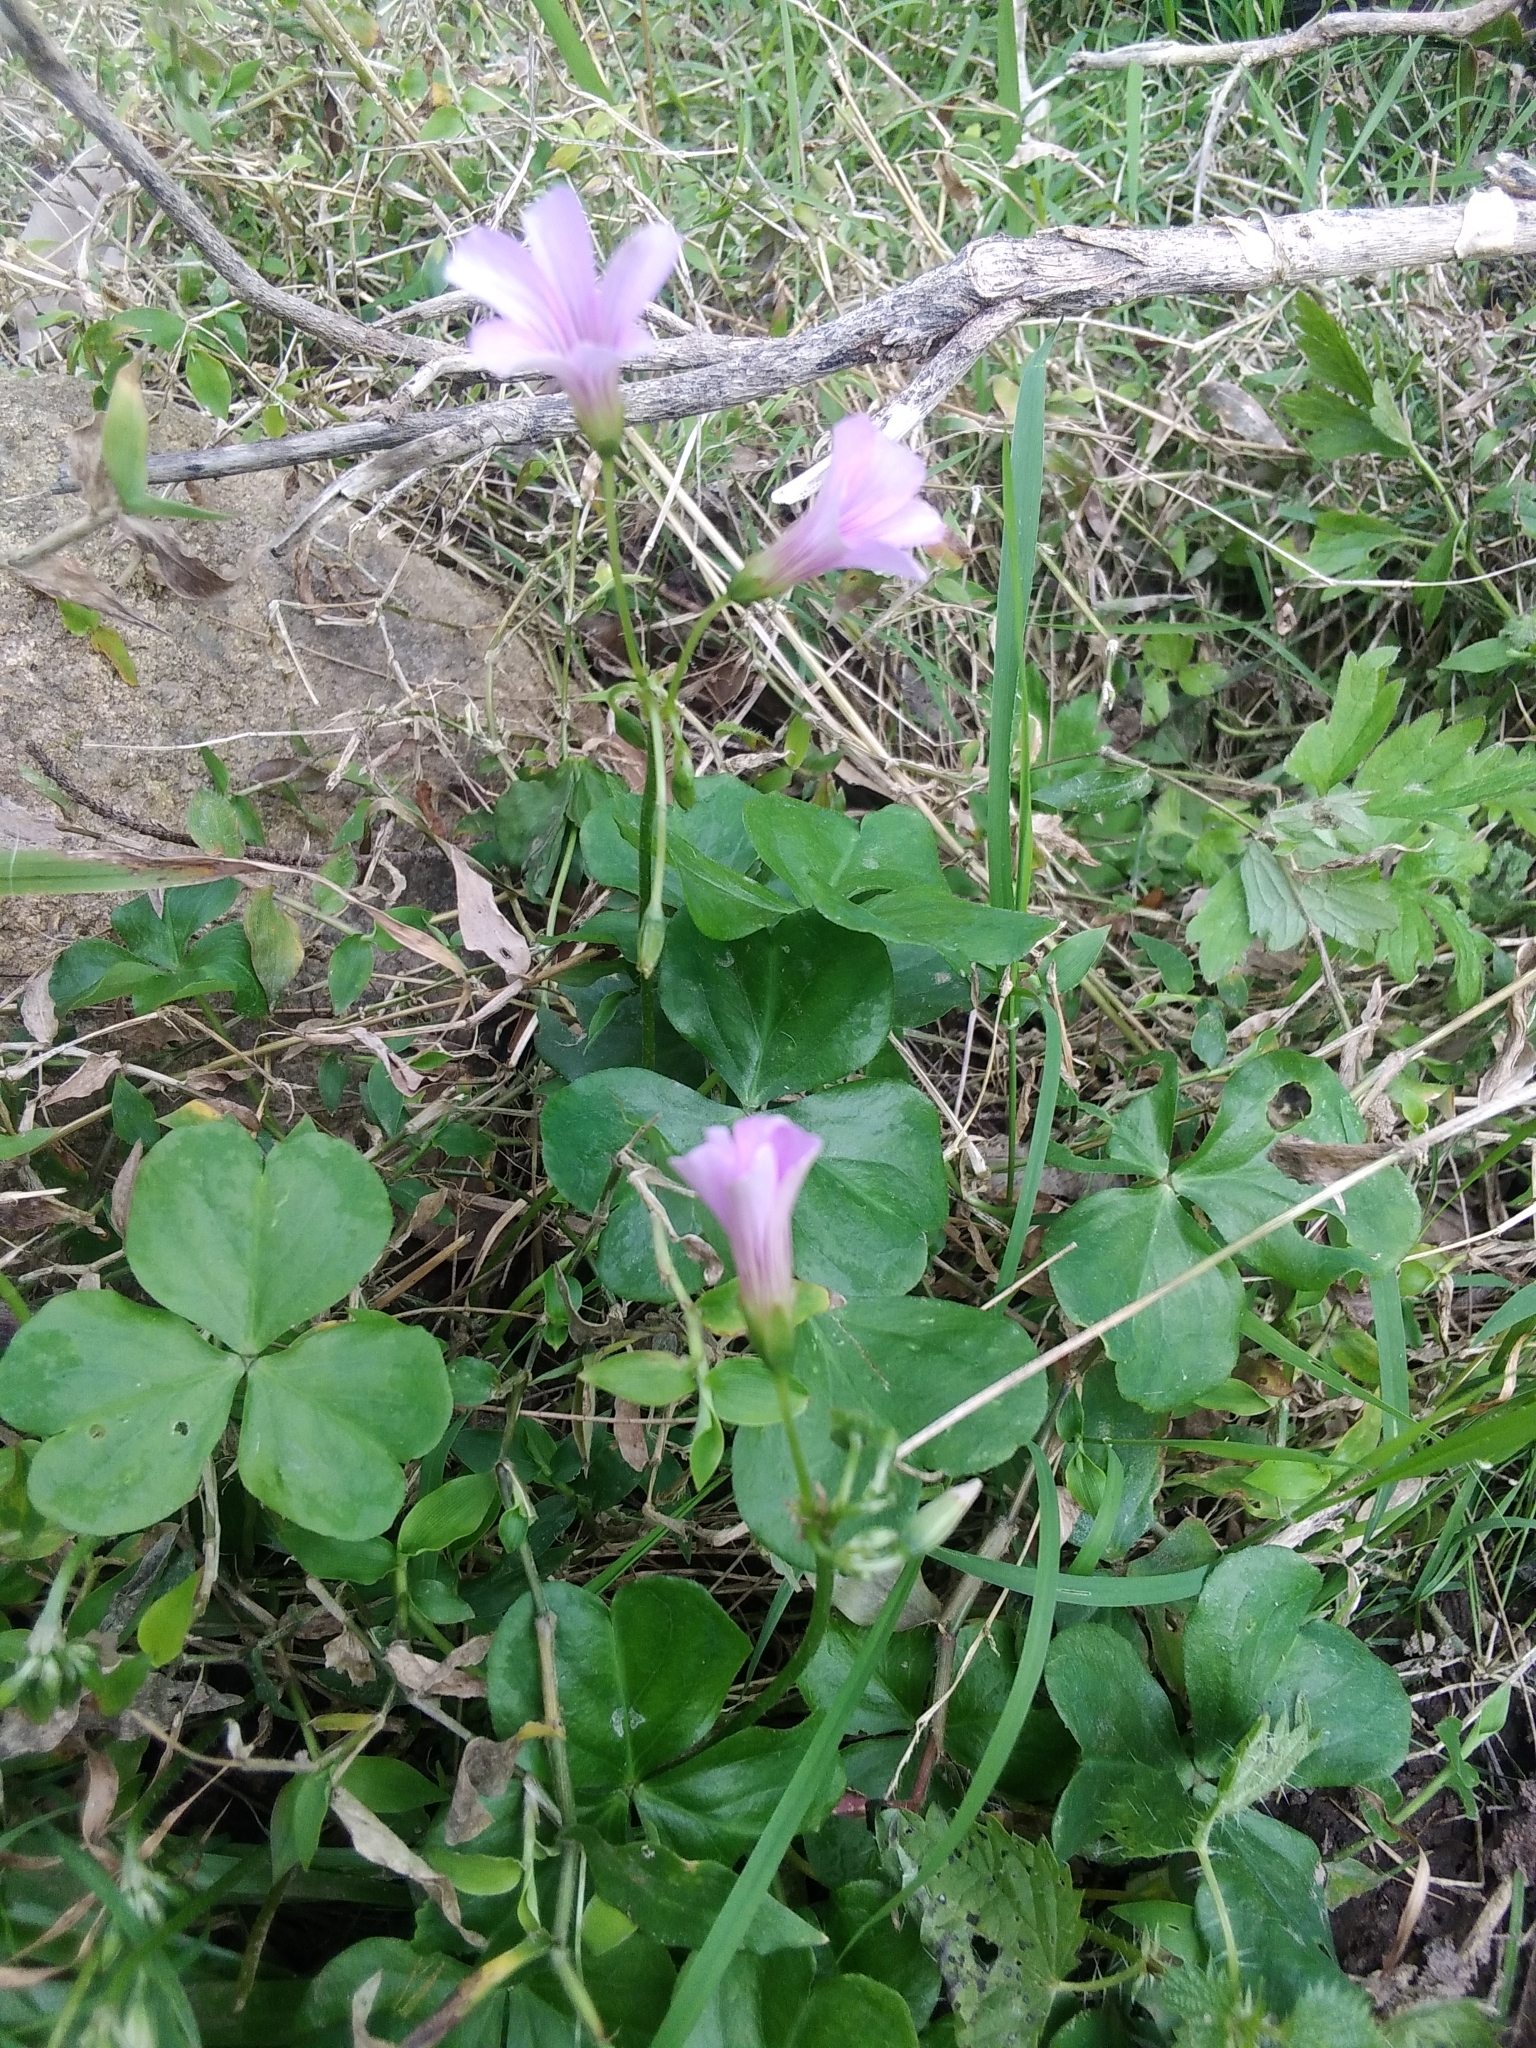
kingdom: Plantae
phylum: Tracheophyta
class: Magnoliopsida
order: Oxalidales
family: Oxalidaceae
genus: Oxalis
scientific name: Oxalis debilis
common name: Large-flowered pink-sorrel
